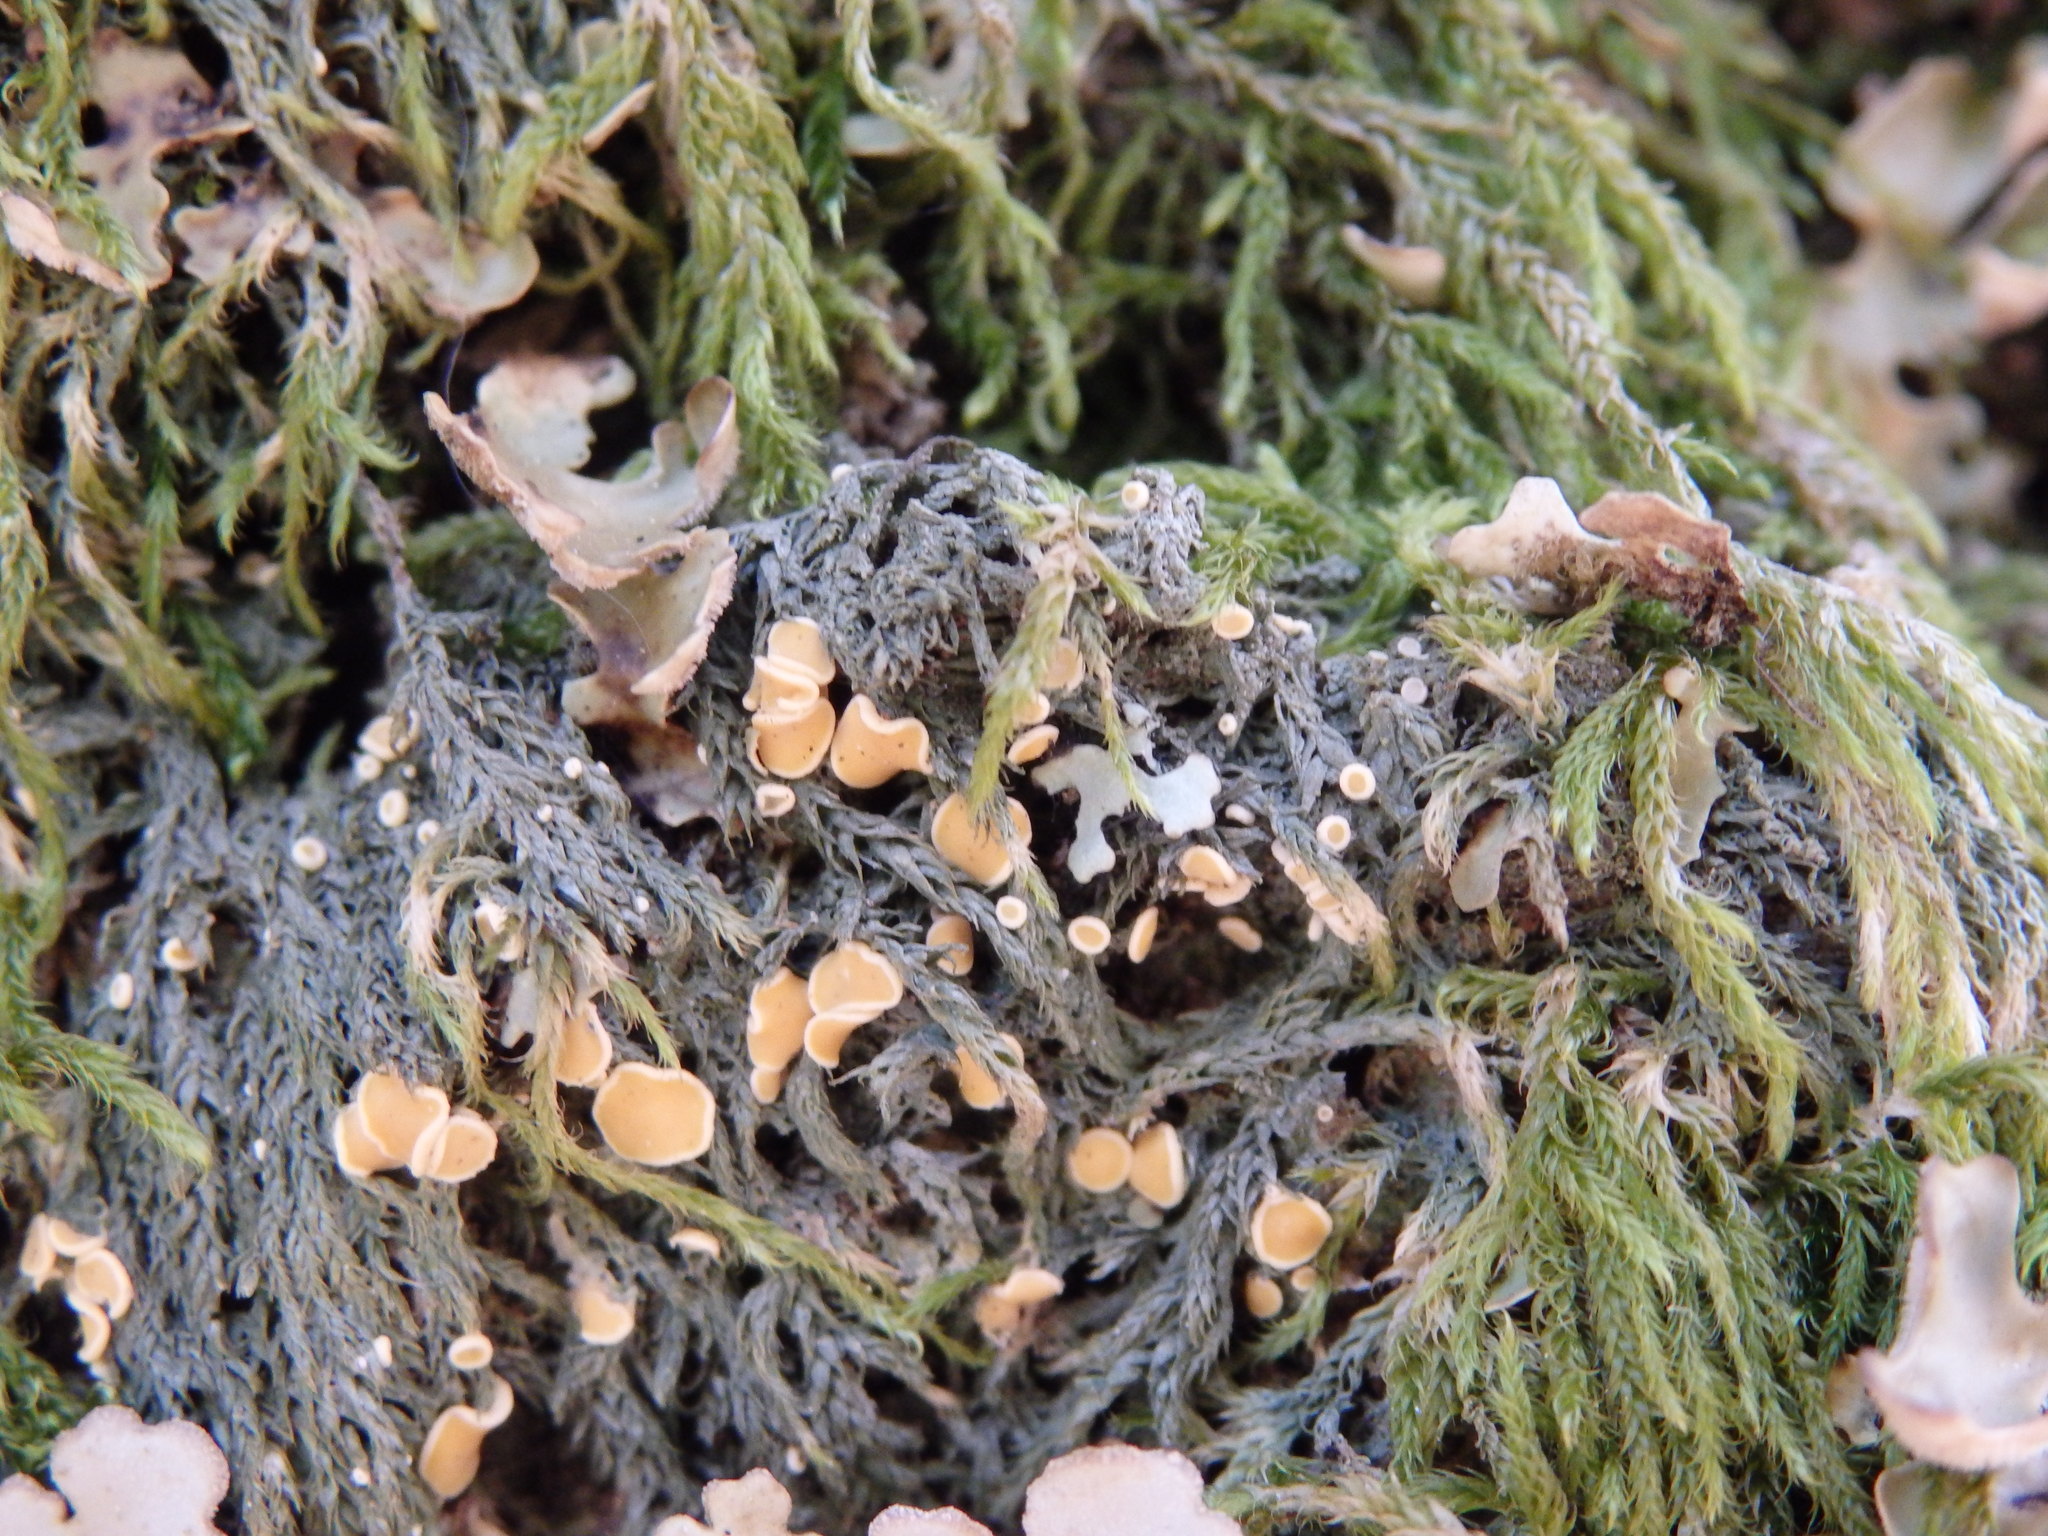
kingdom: Fungi
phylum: Ascomycota
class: Lecanoromycetes
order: Ostropales
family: Coenogoniaceae
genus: Coenogonium
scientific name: Coenogonium luteum
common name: Orange dimple lichen
